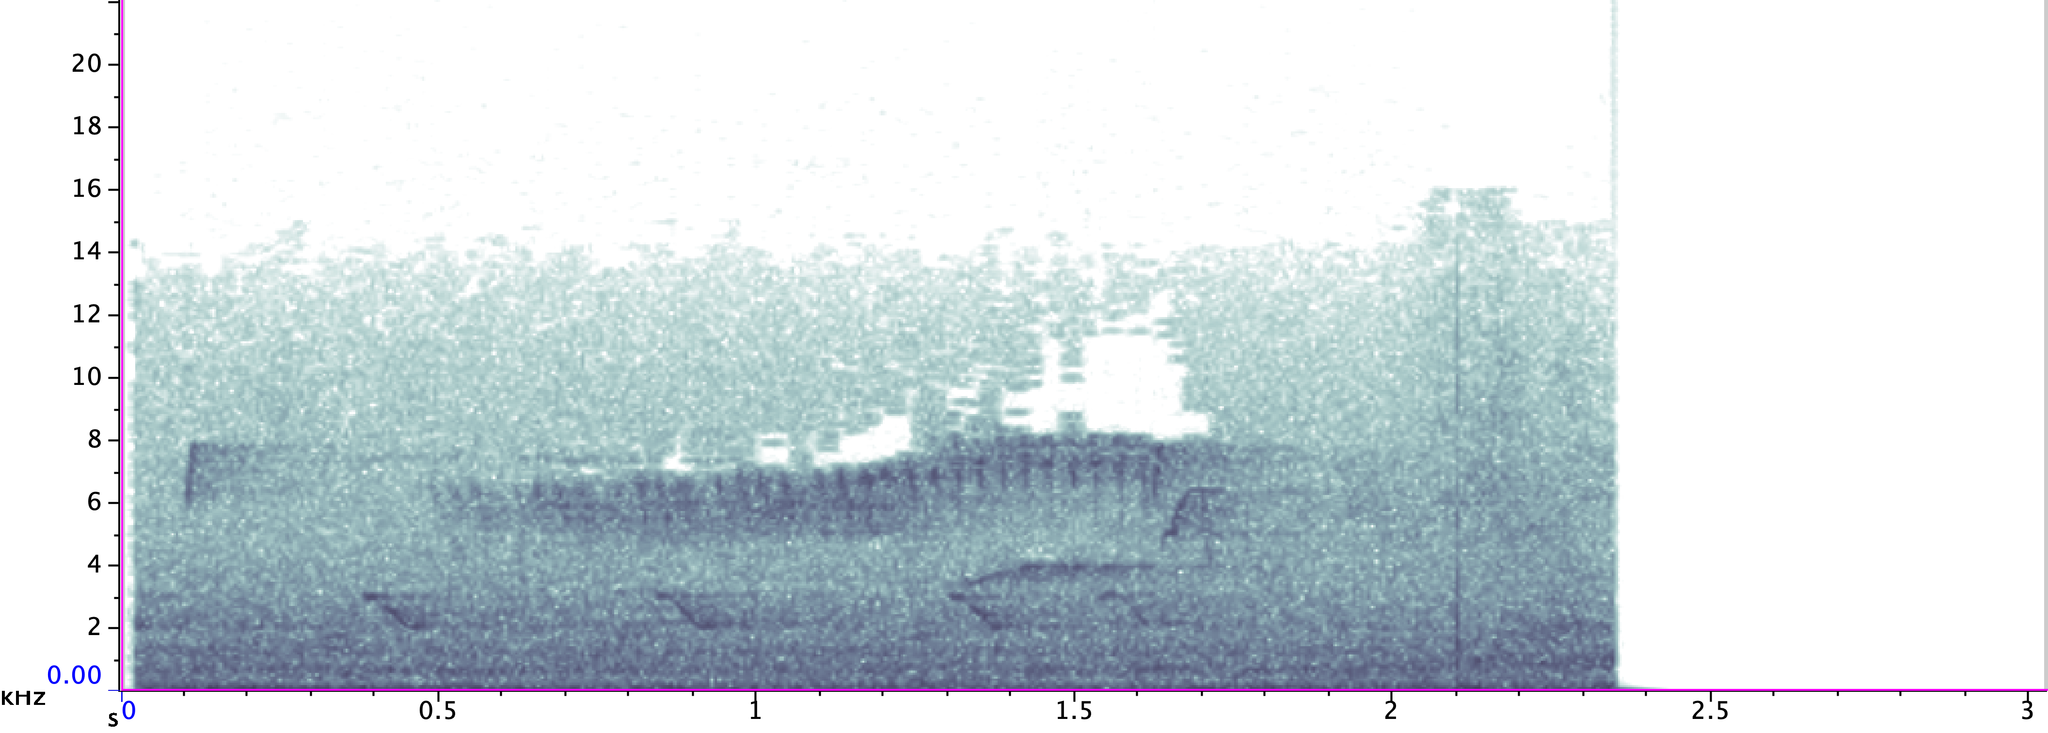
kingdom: Animalia
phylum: Chordata
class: Aves
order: Passeriformes
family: Parulidae
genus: Setophaga
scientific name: Setophaga americana
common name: Northern parula
